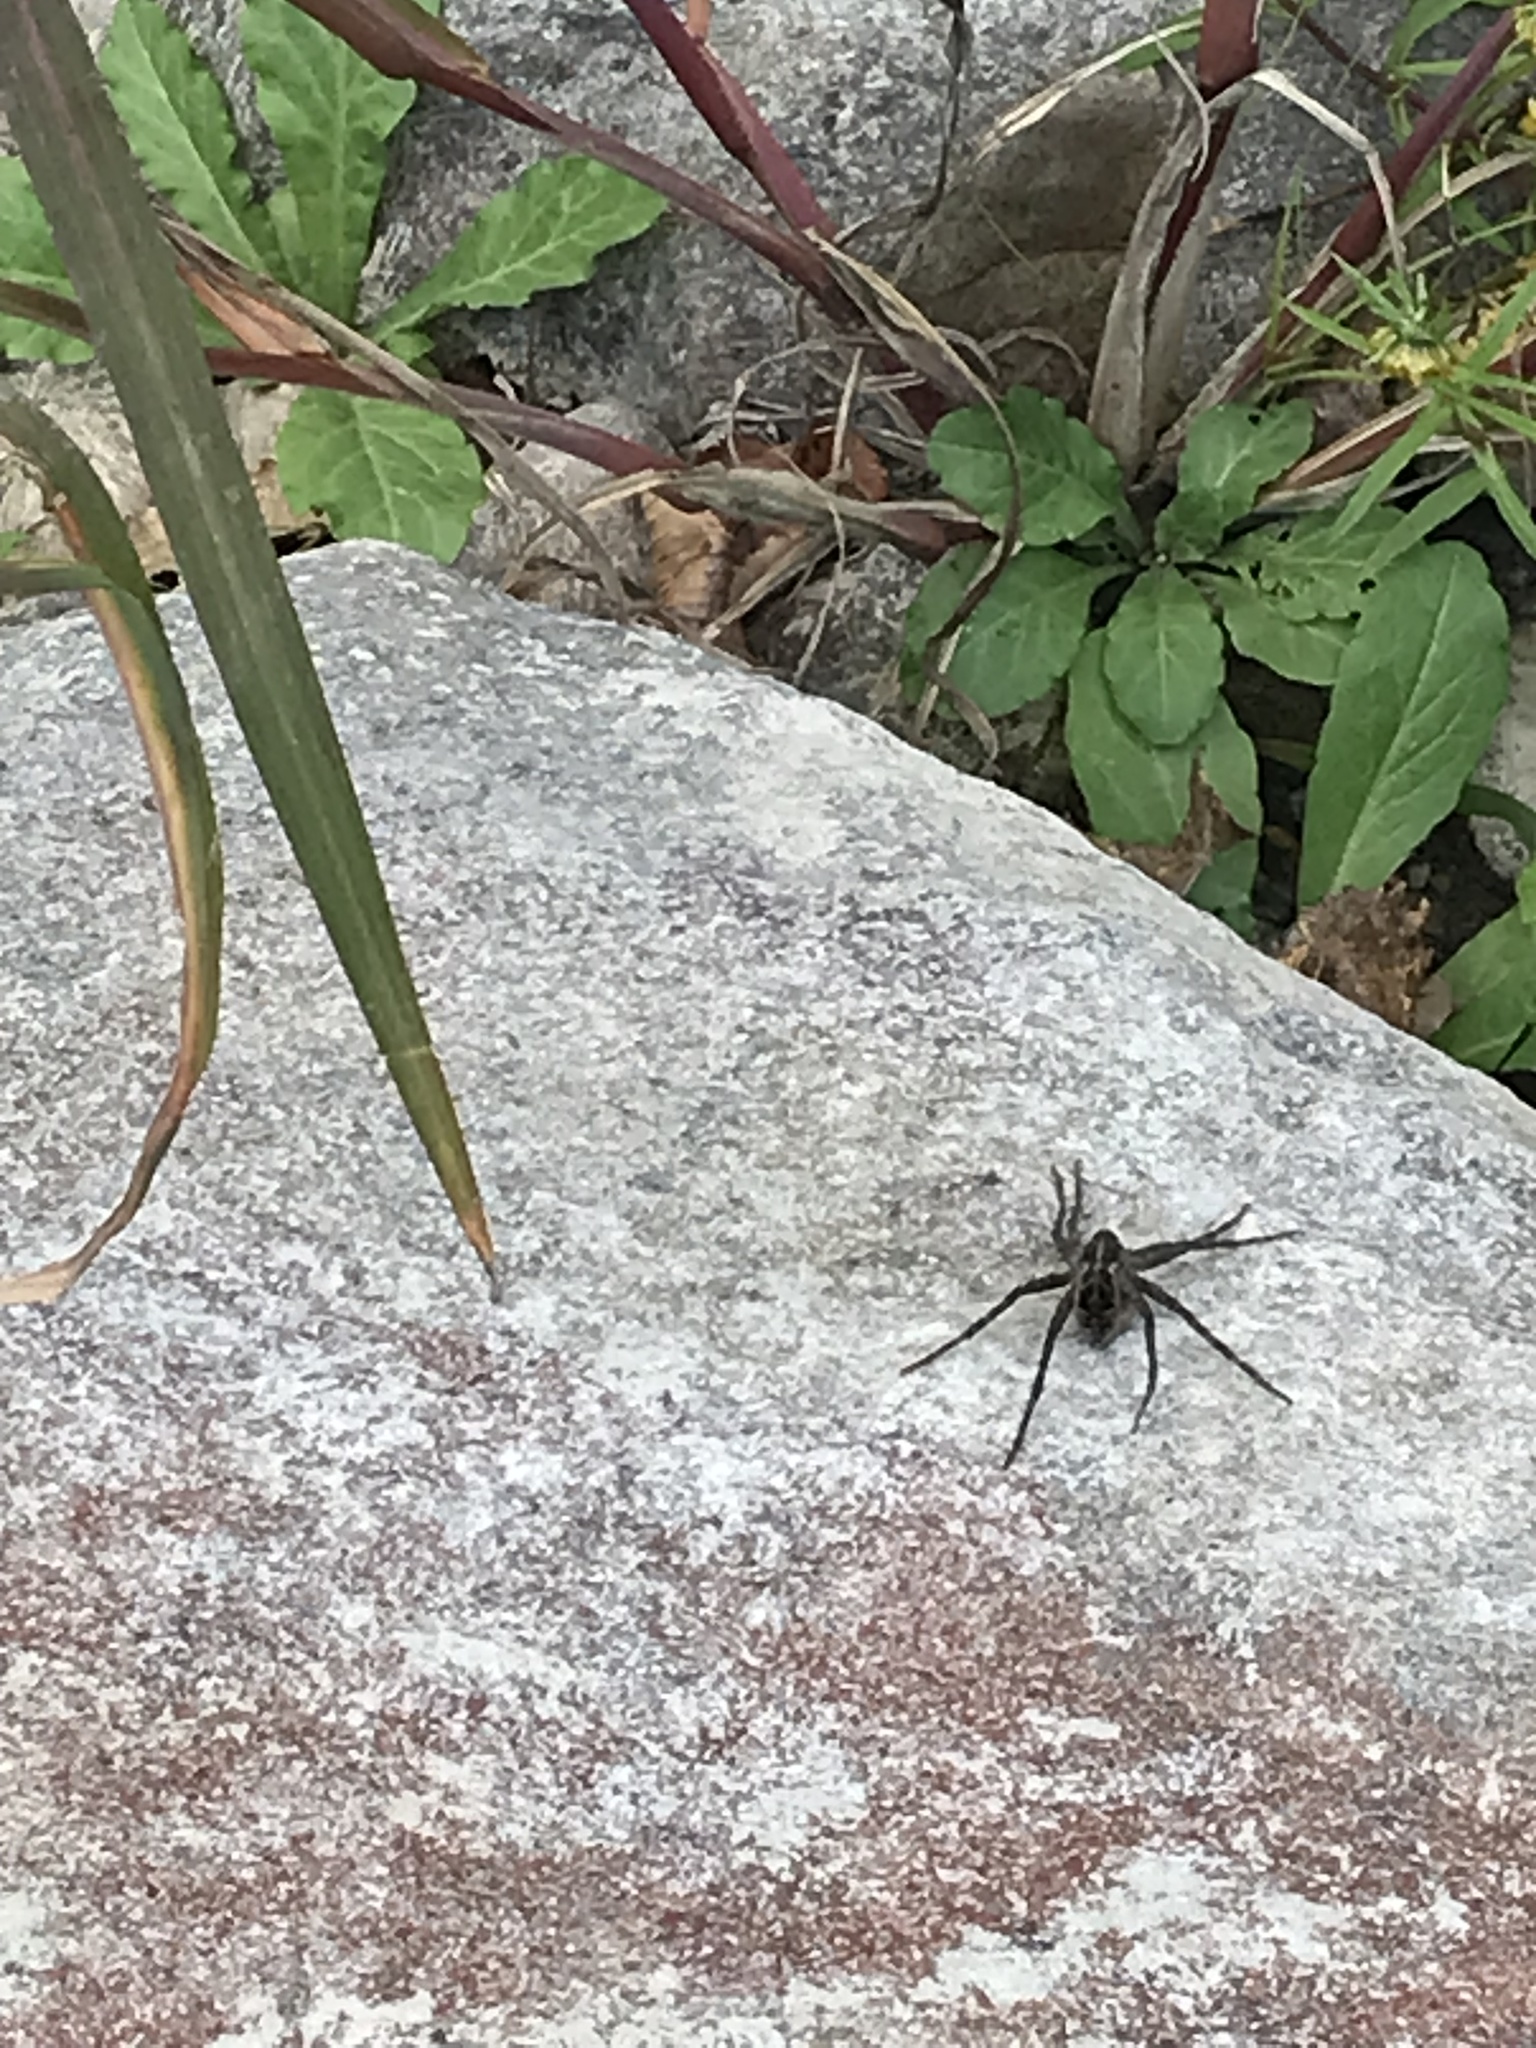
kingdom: Animalia
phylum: Arthropoda
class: Arachnida
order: Araneae
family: Pisauridae
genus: Dolomedes
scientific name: Dolomedes scriptus
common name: Striped fishing spider
